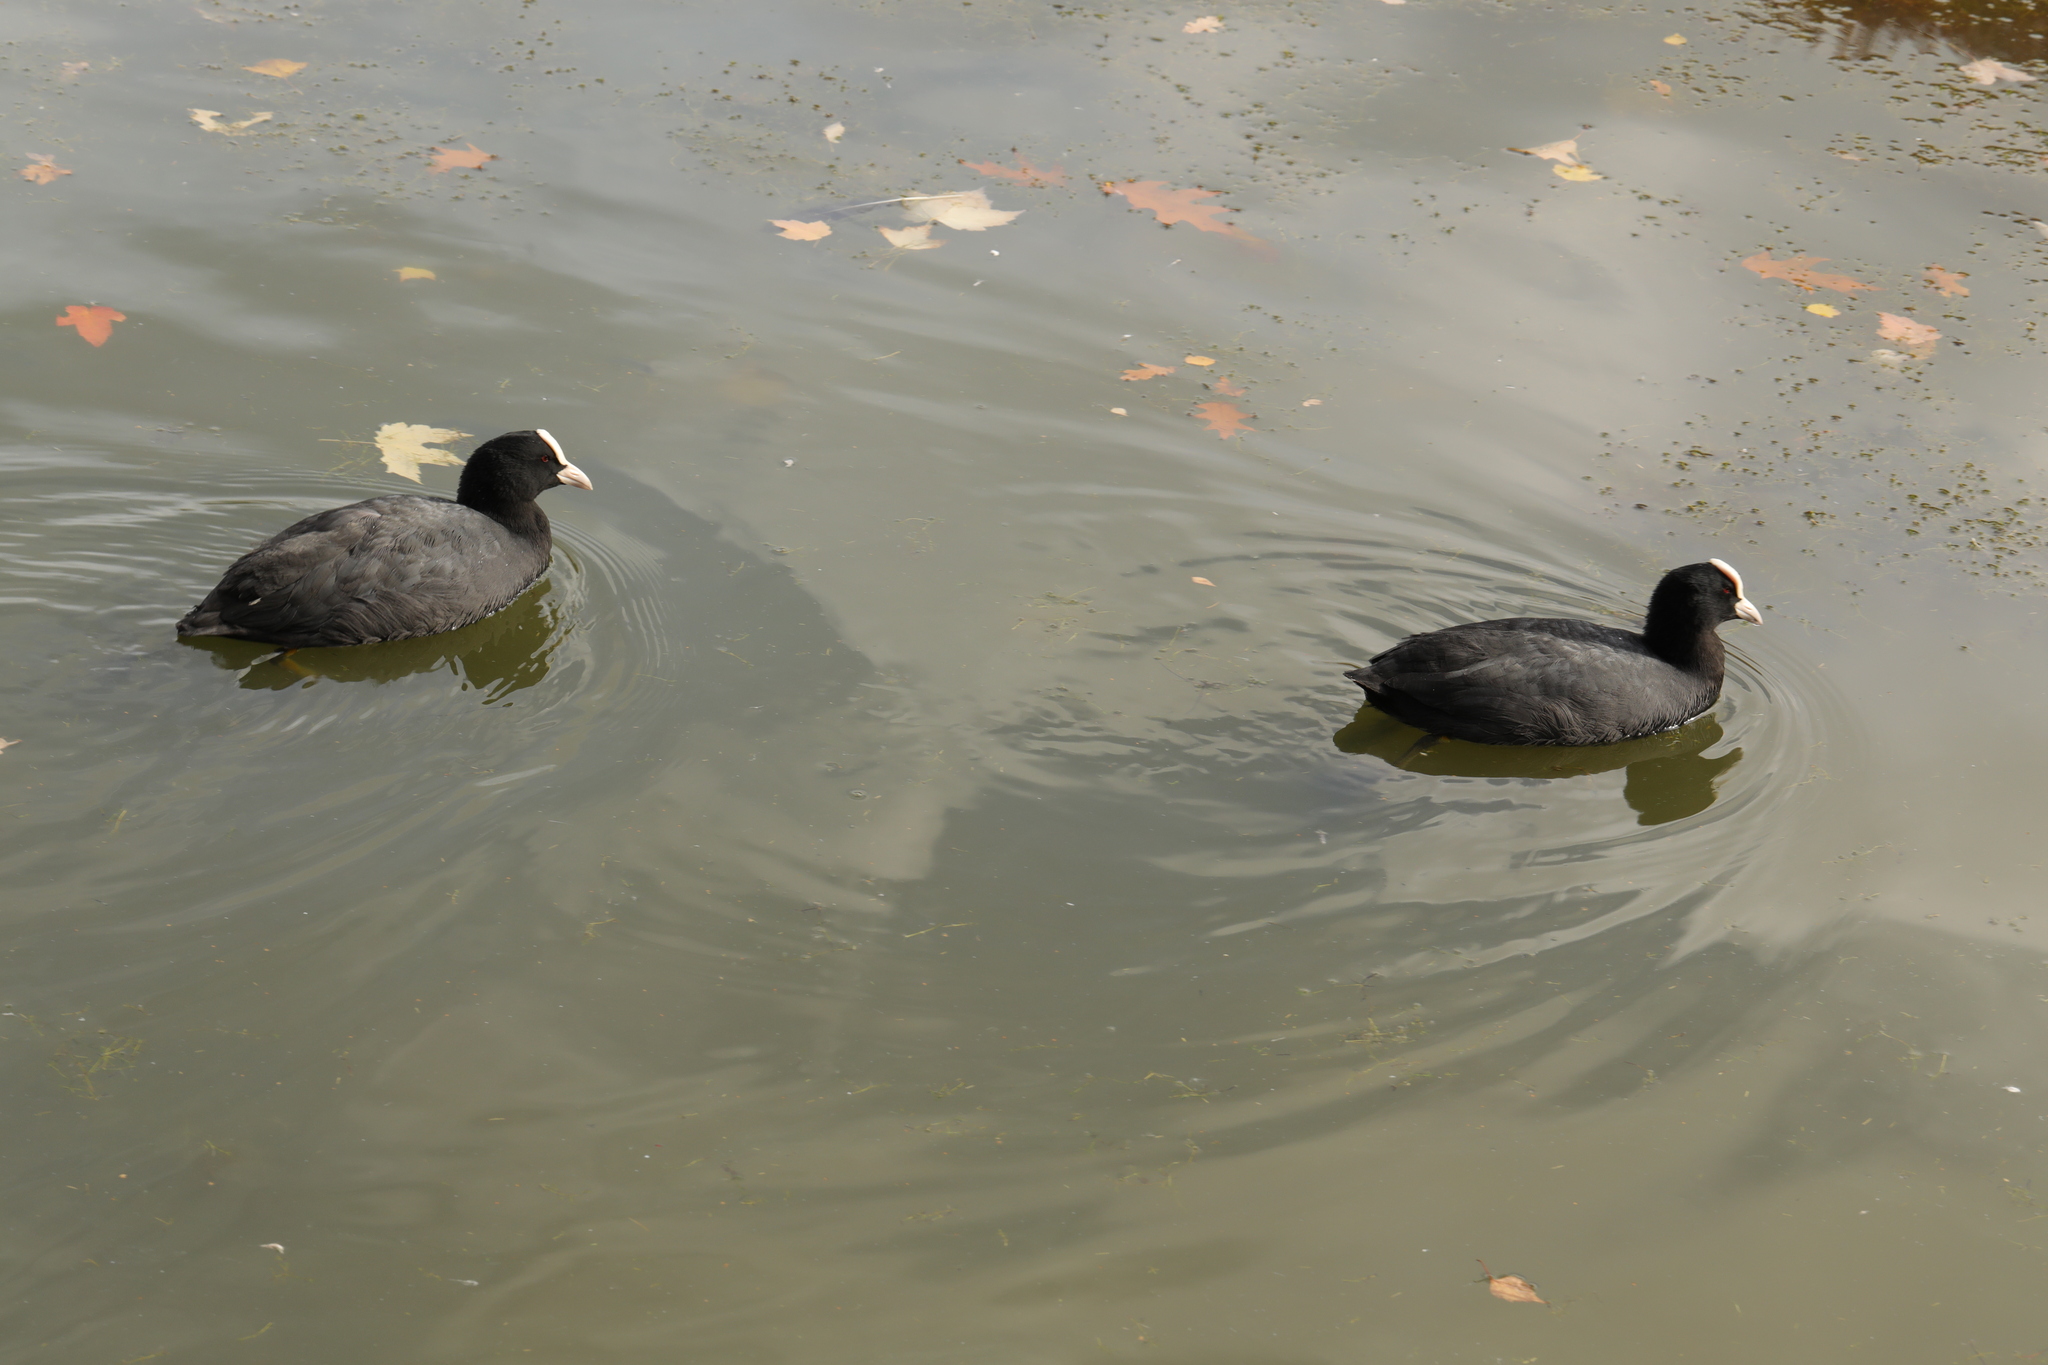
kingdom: Animalia
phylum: Chordata
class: Aves
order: Gruiformes
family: Rallidae
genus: Fulica
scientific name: Fulica atra
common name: Eurasian coot
